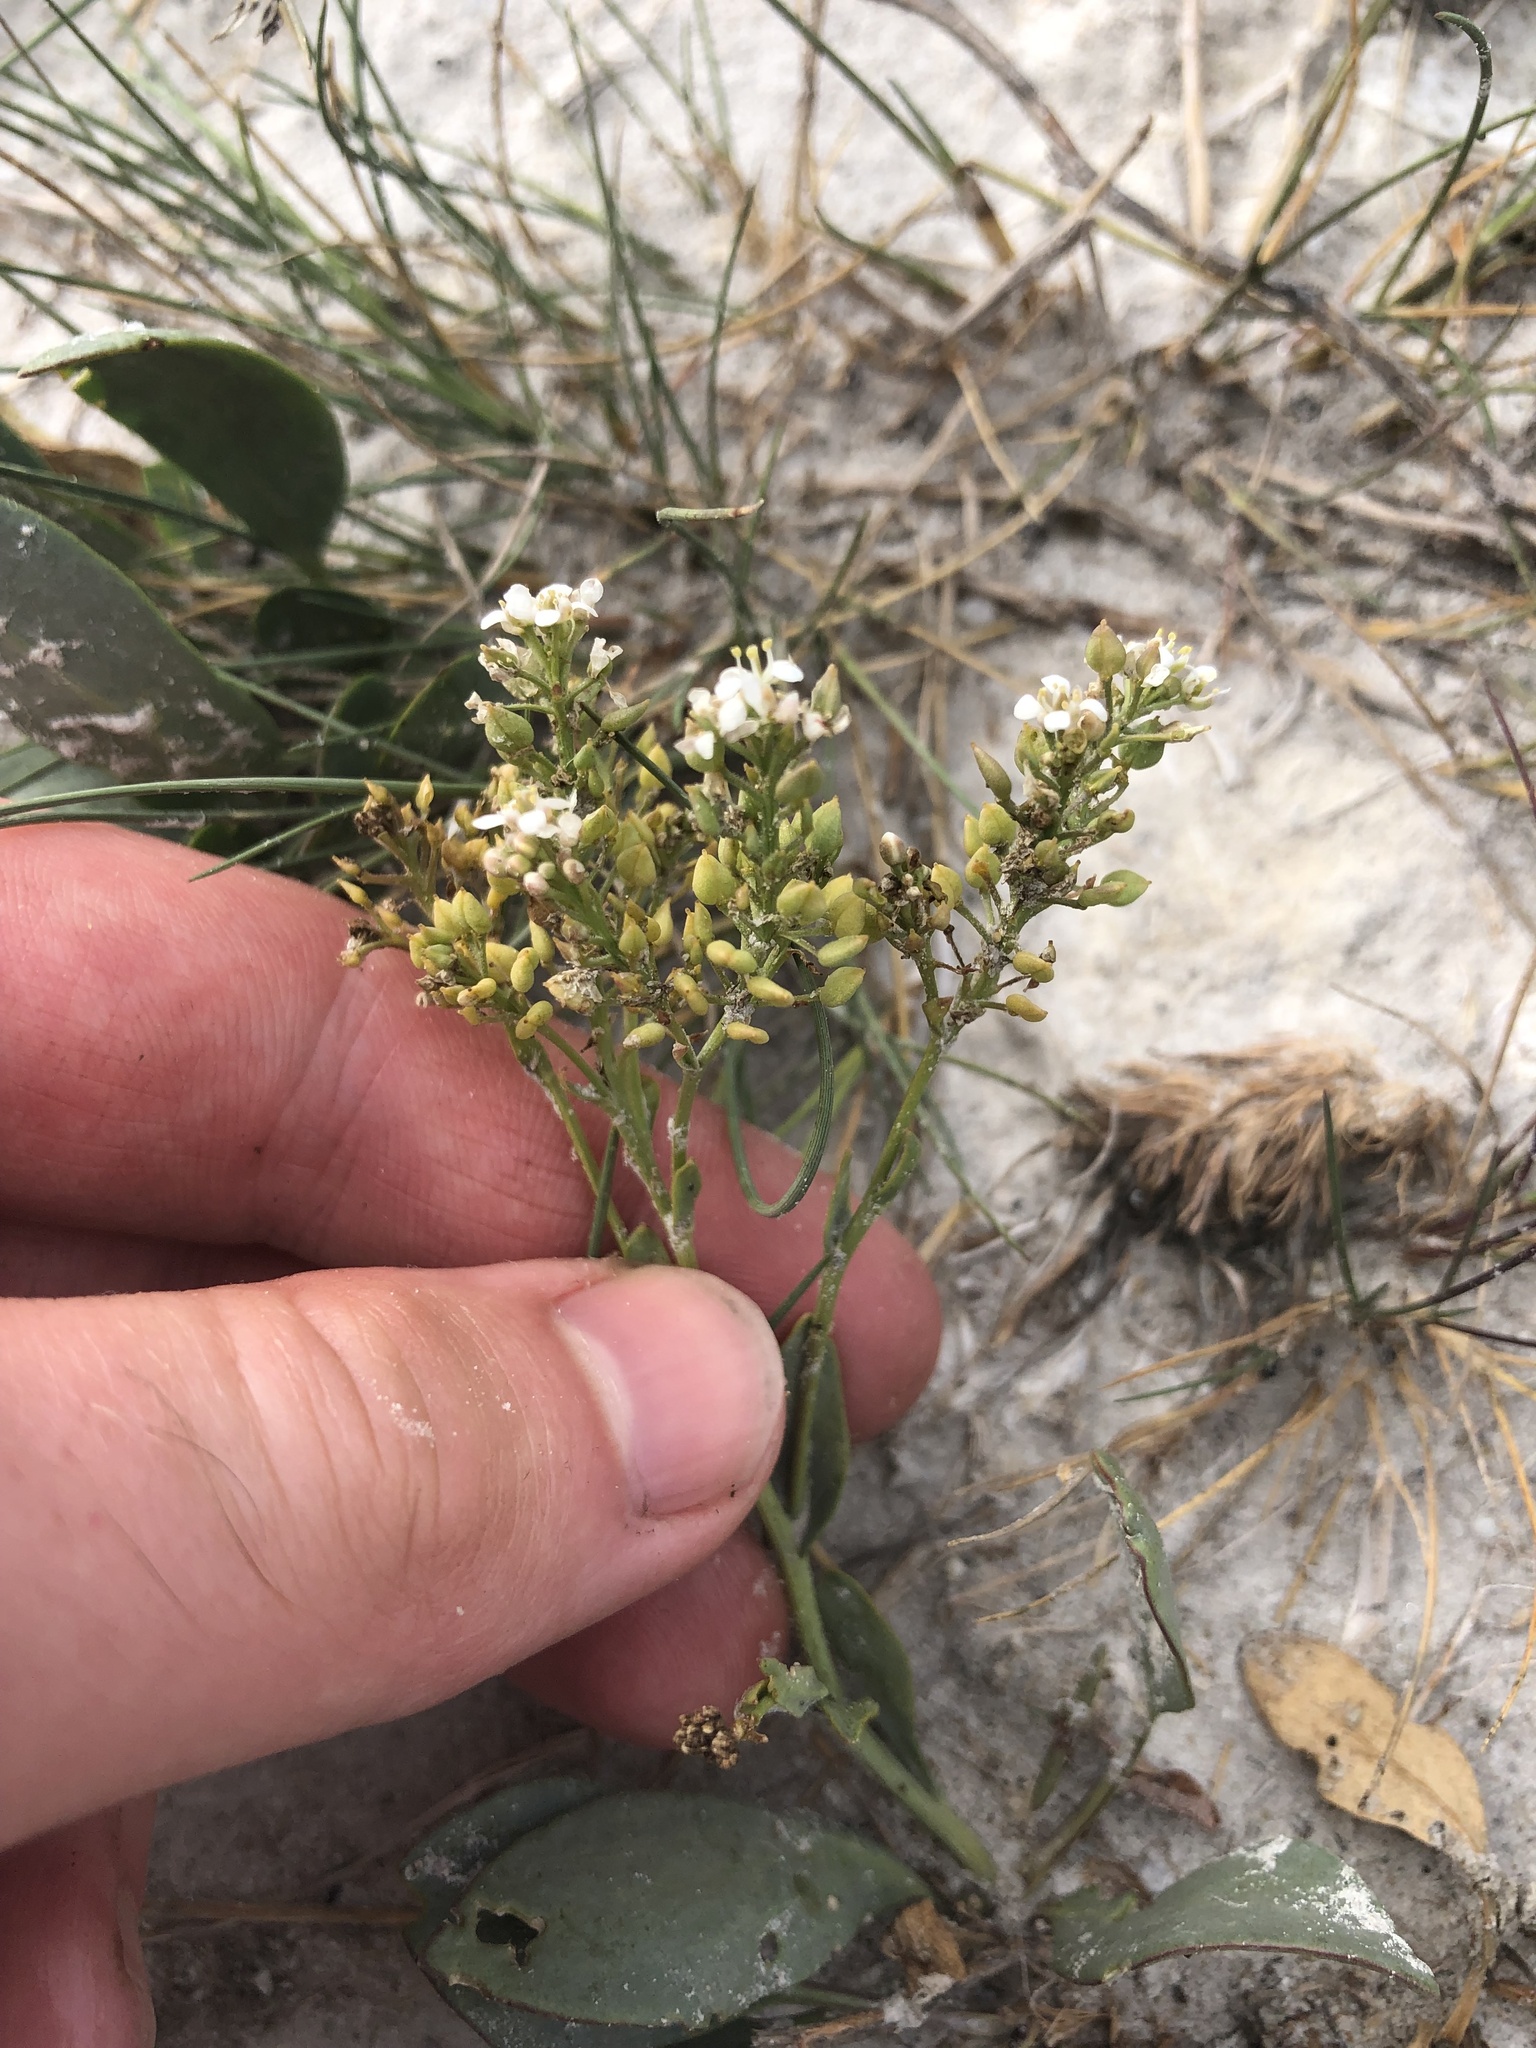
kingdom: Plantae
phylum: Tracheophyta
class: Magnoliopsida
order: Brassicales
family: Brassicaceae
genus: Lepidium
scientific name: Lepidium cartilagineum
